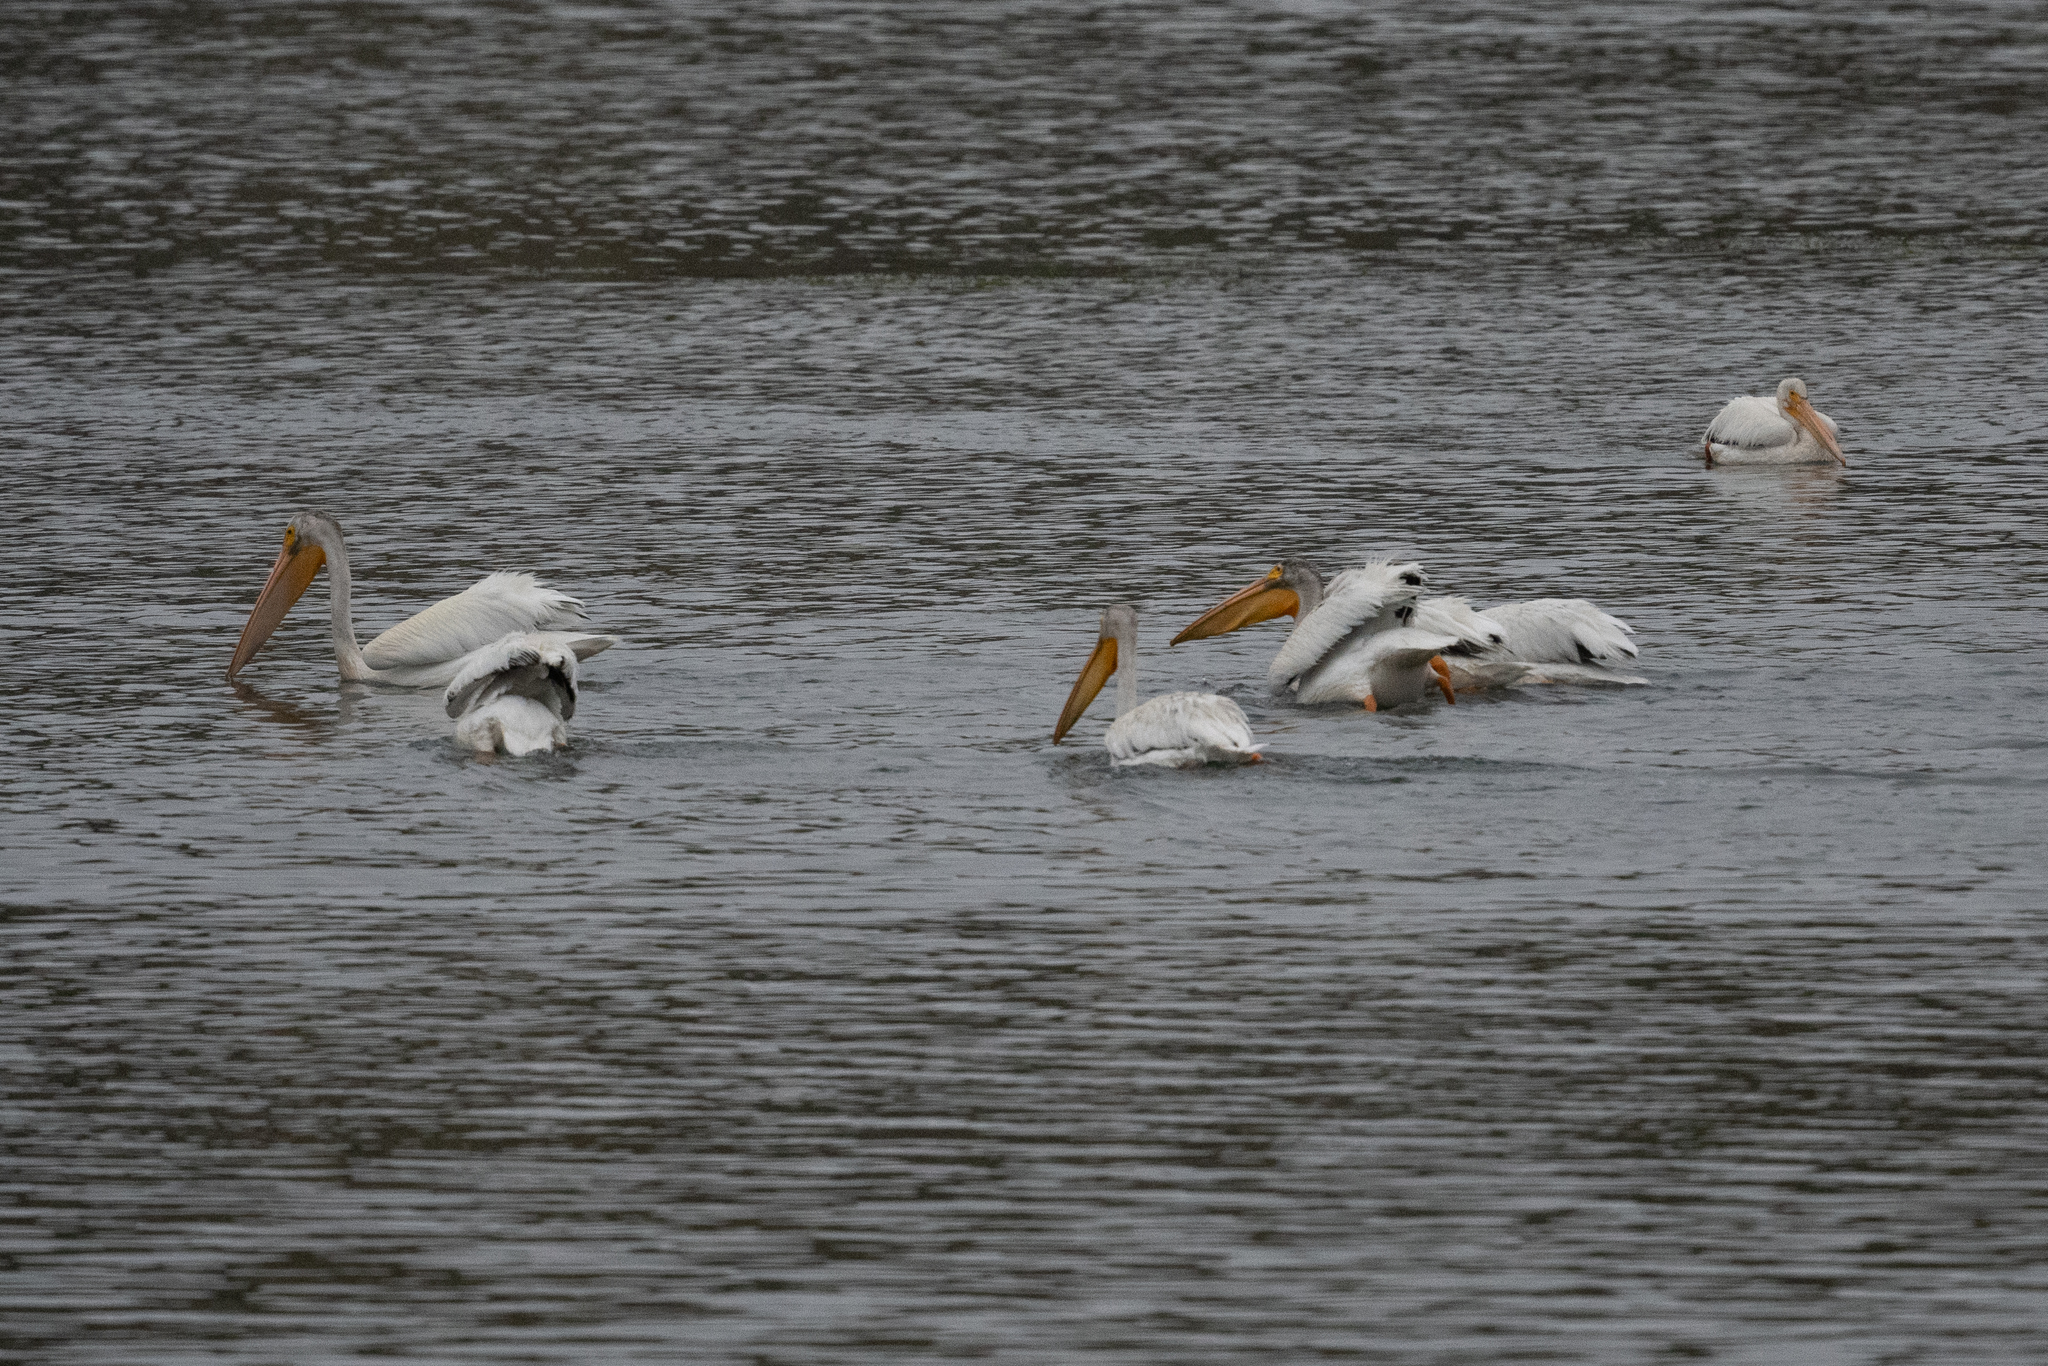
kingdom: Animalia
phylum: Chordata
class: Aves
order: Pelecaniformes
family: Pelecanidae
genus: Pelecanus
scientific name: Pelecanus erythrorhynchos
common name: American white pelican
